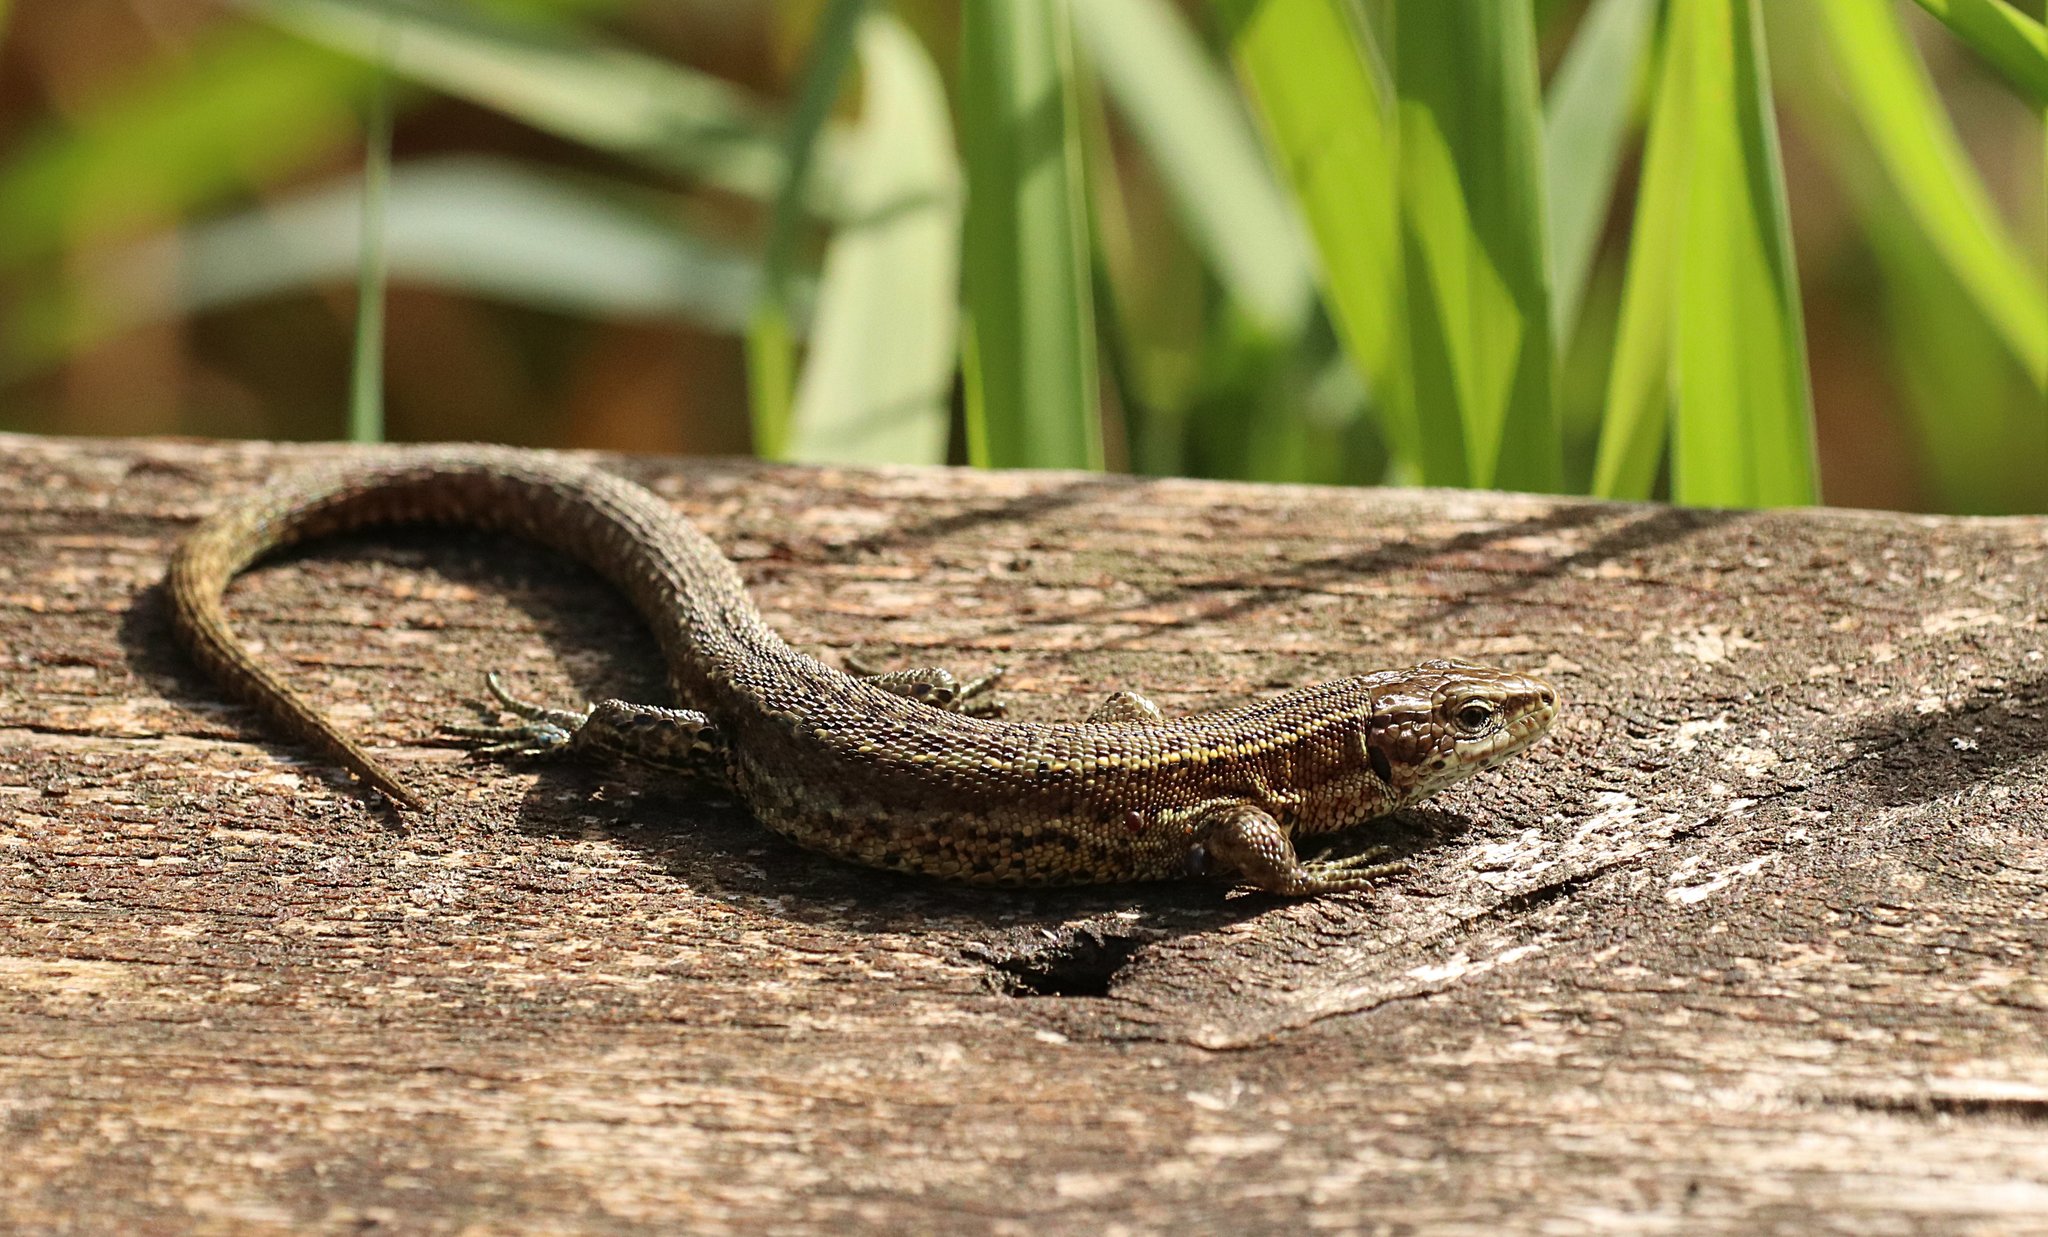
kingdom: Animalia
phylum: Chordata
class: Squamata
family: Lacertidae
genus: Zootoca
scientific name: Zootoca vivipara
